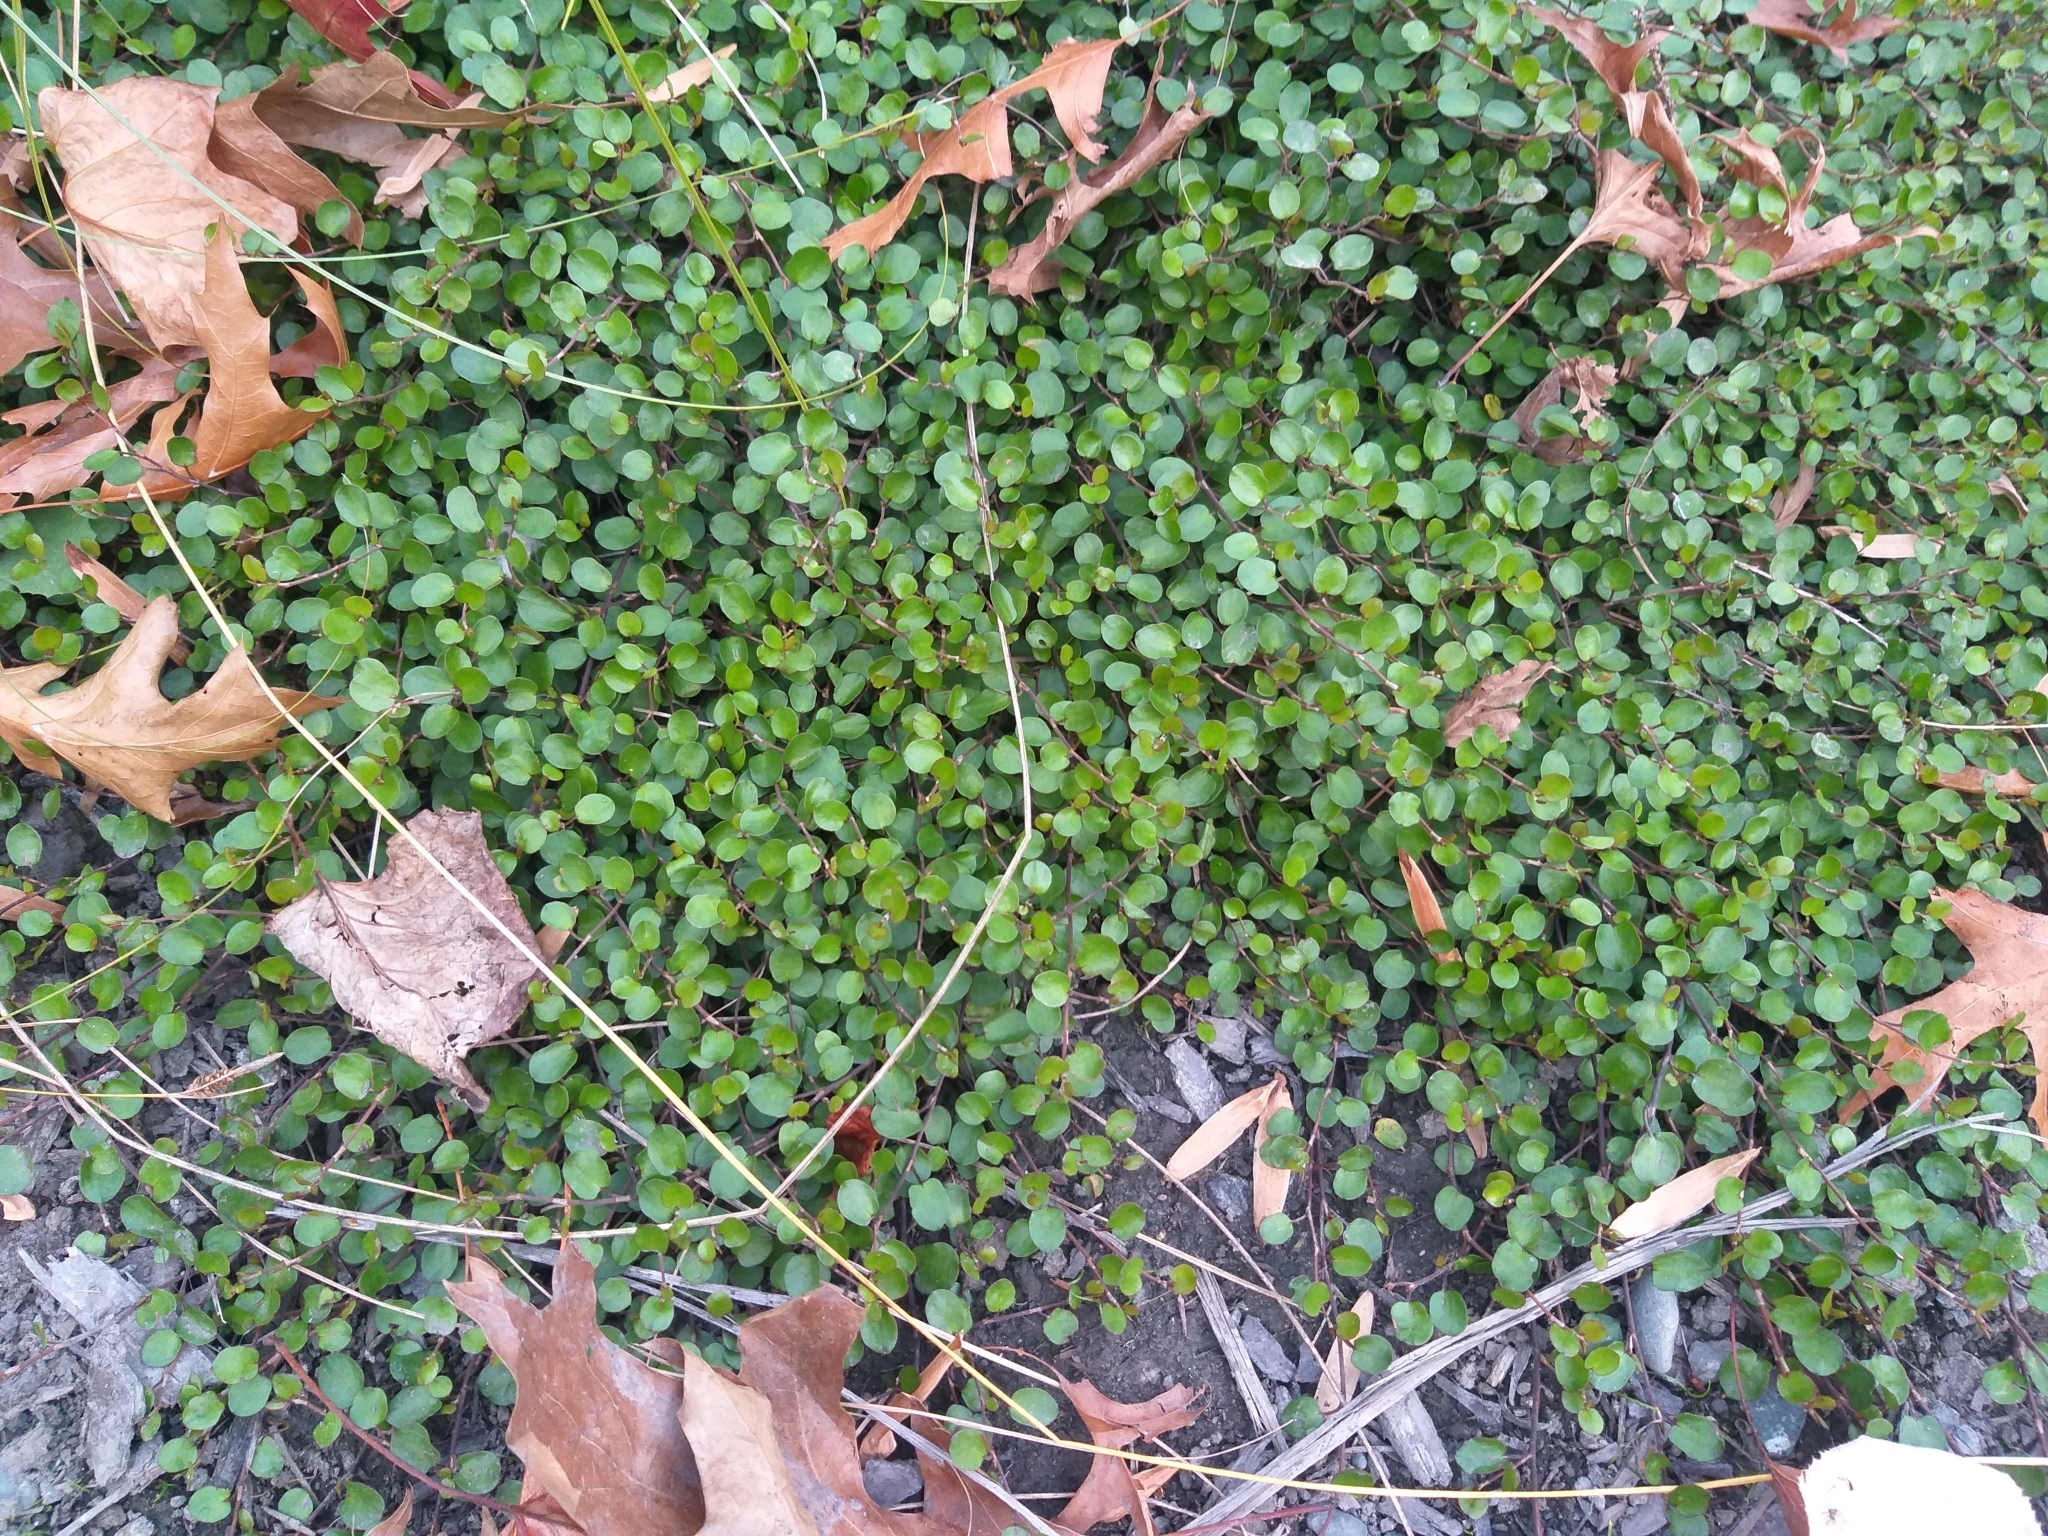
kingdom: Plantae
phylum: Tracheophyta
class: Magnoliopsida
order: Caryophyllales
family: Polygonaceae
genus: Muehlenbeckia
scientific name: Muehlenbeckia axillaris
